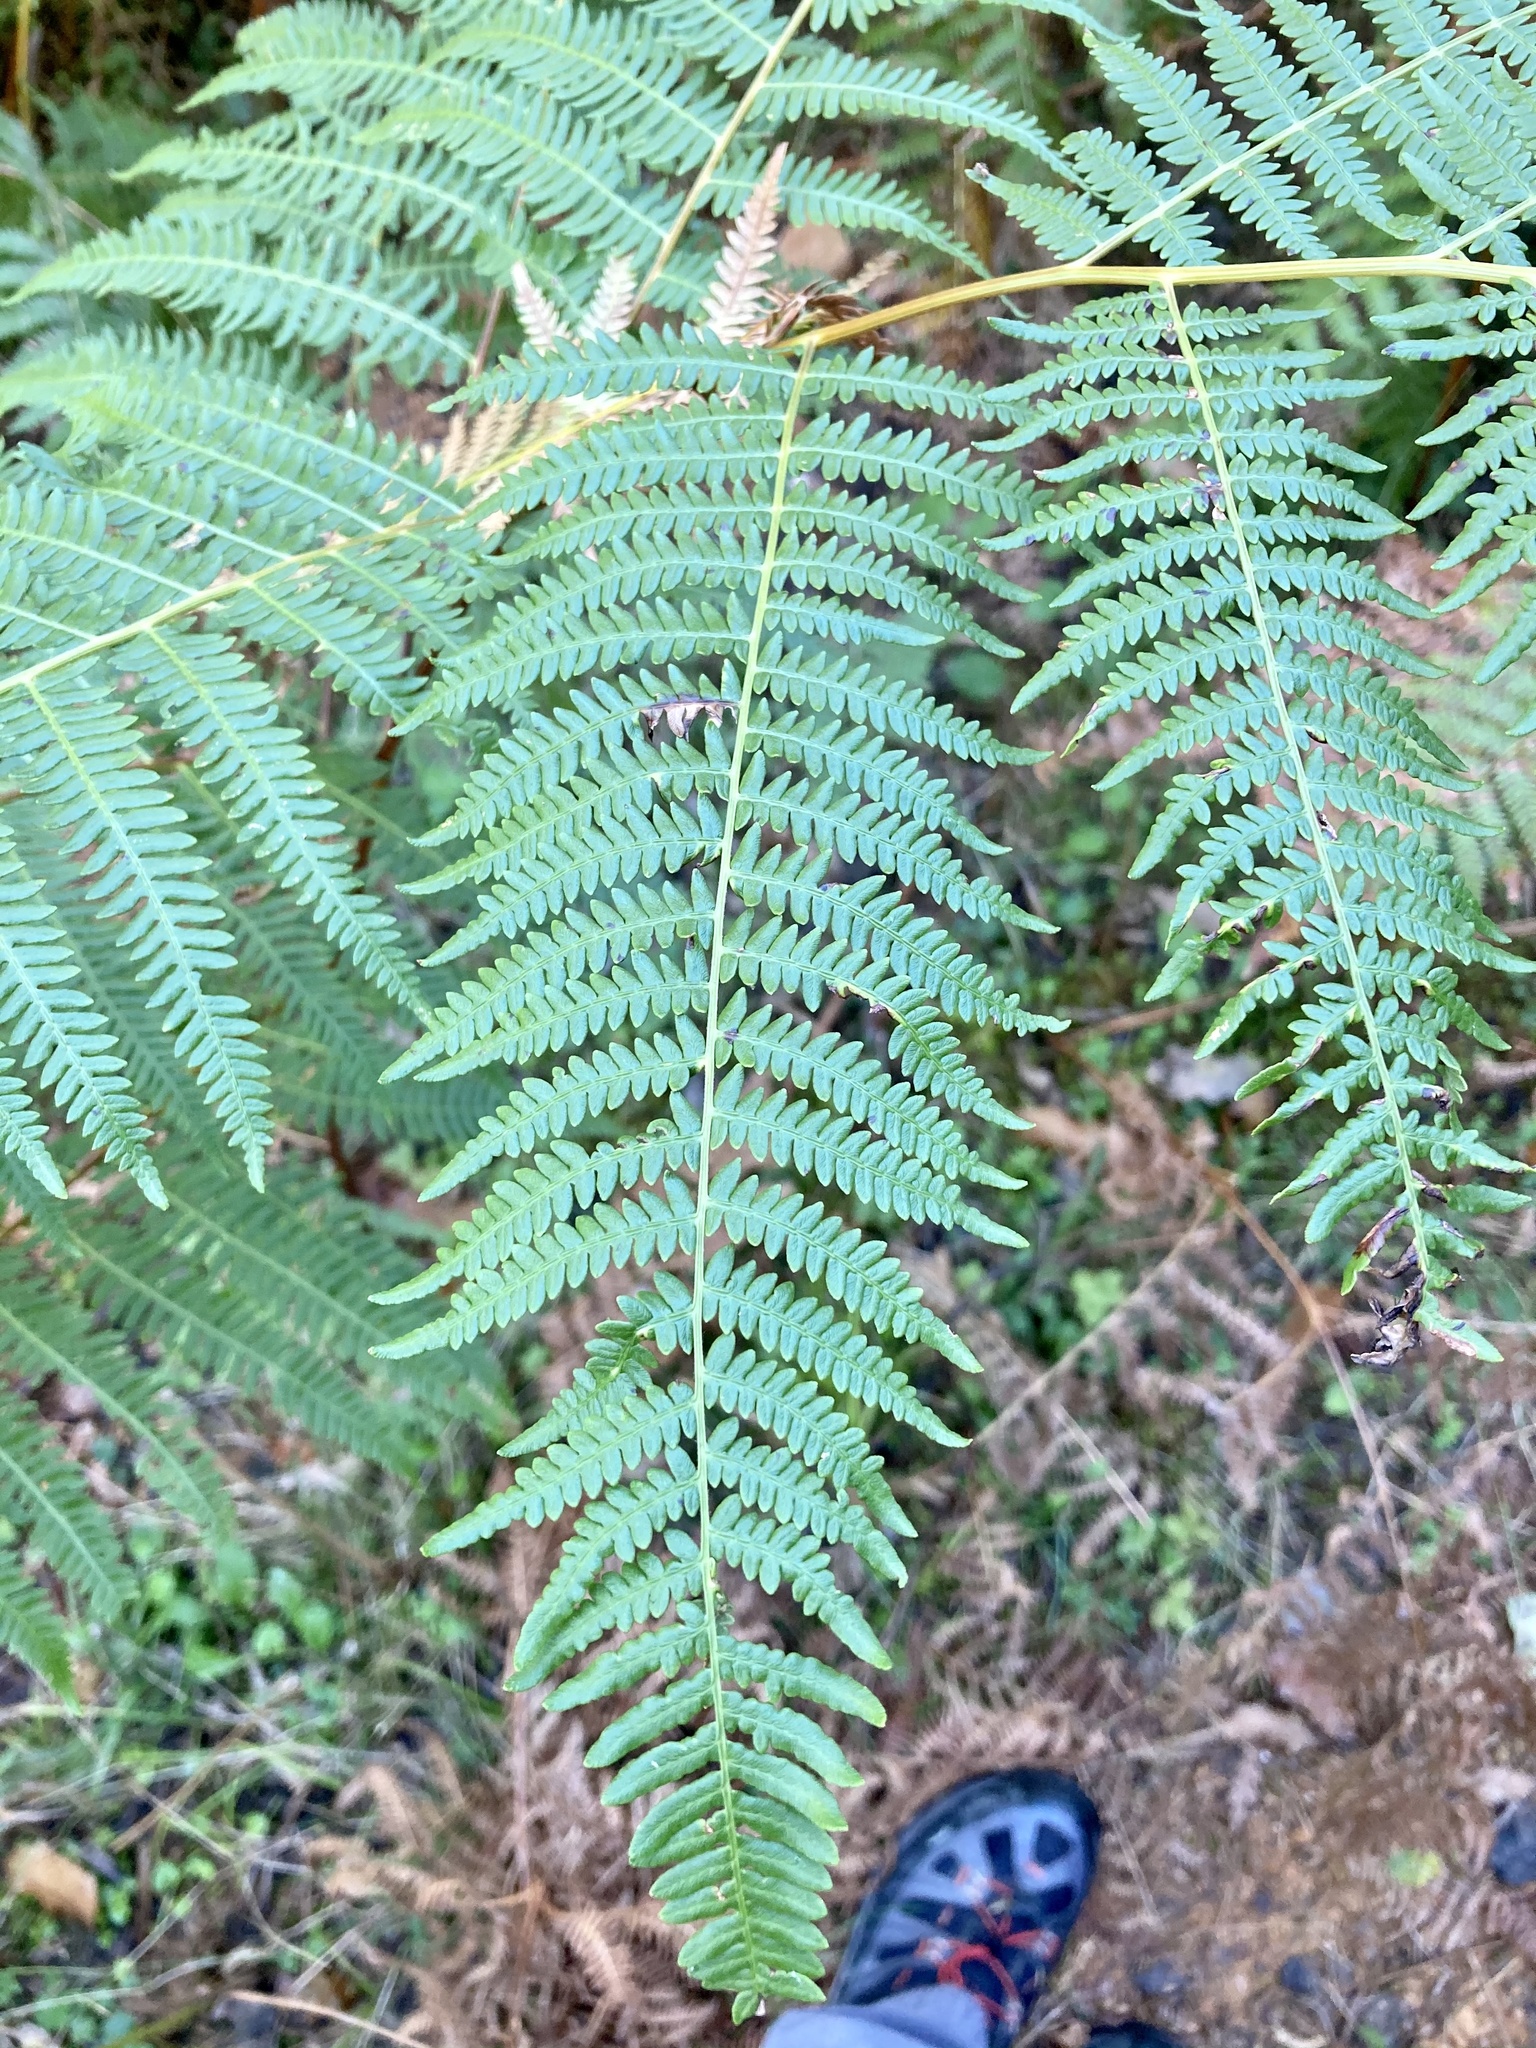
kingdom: Plantae
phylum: Tracheophyta
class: Polypodiopsida
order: Polypodiales
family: Dennstaedtiaceae
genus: Pteridium
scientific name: Pteridium aquilinum
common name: Bracken
